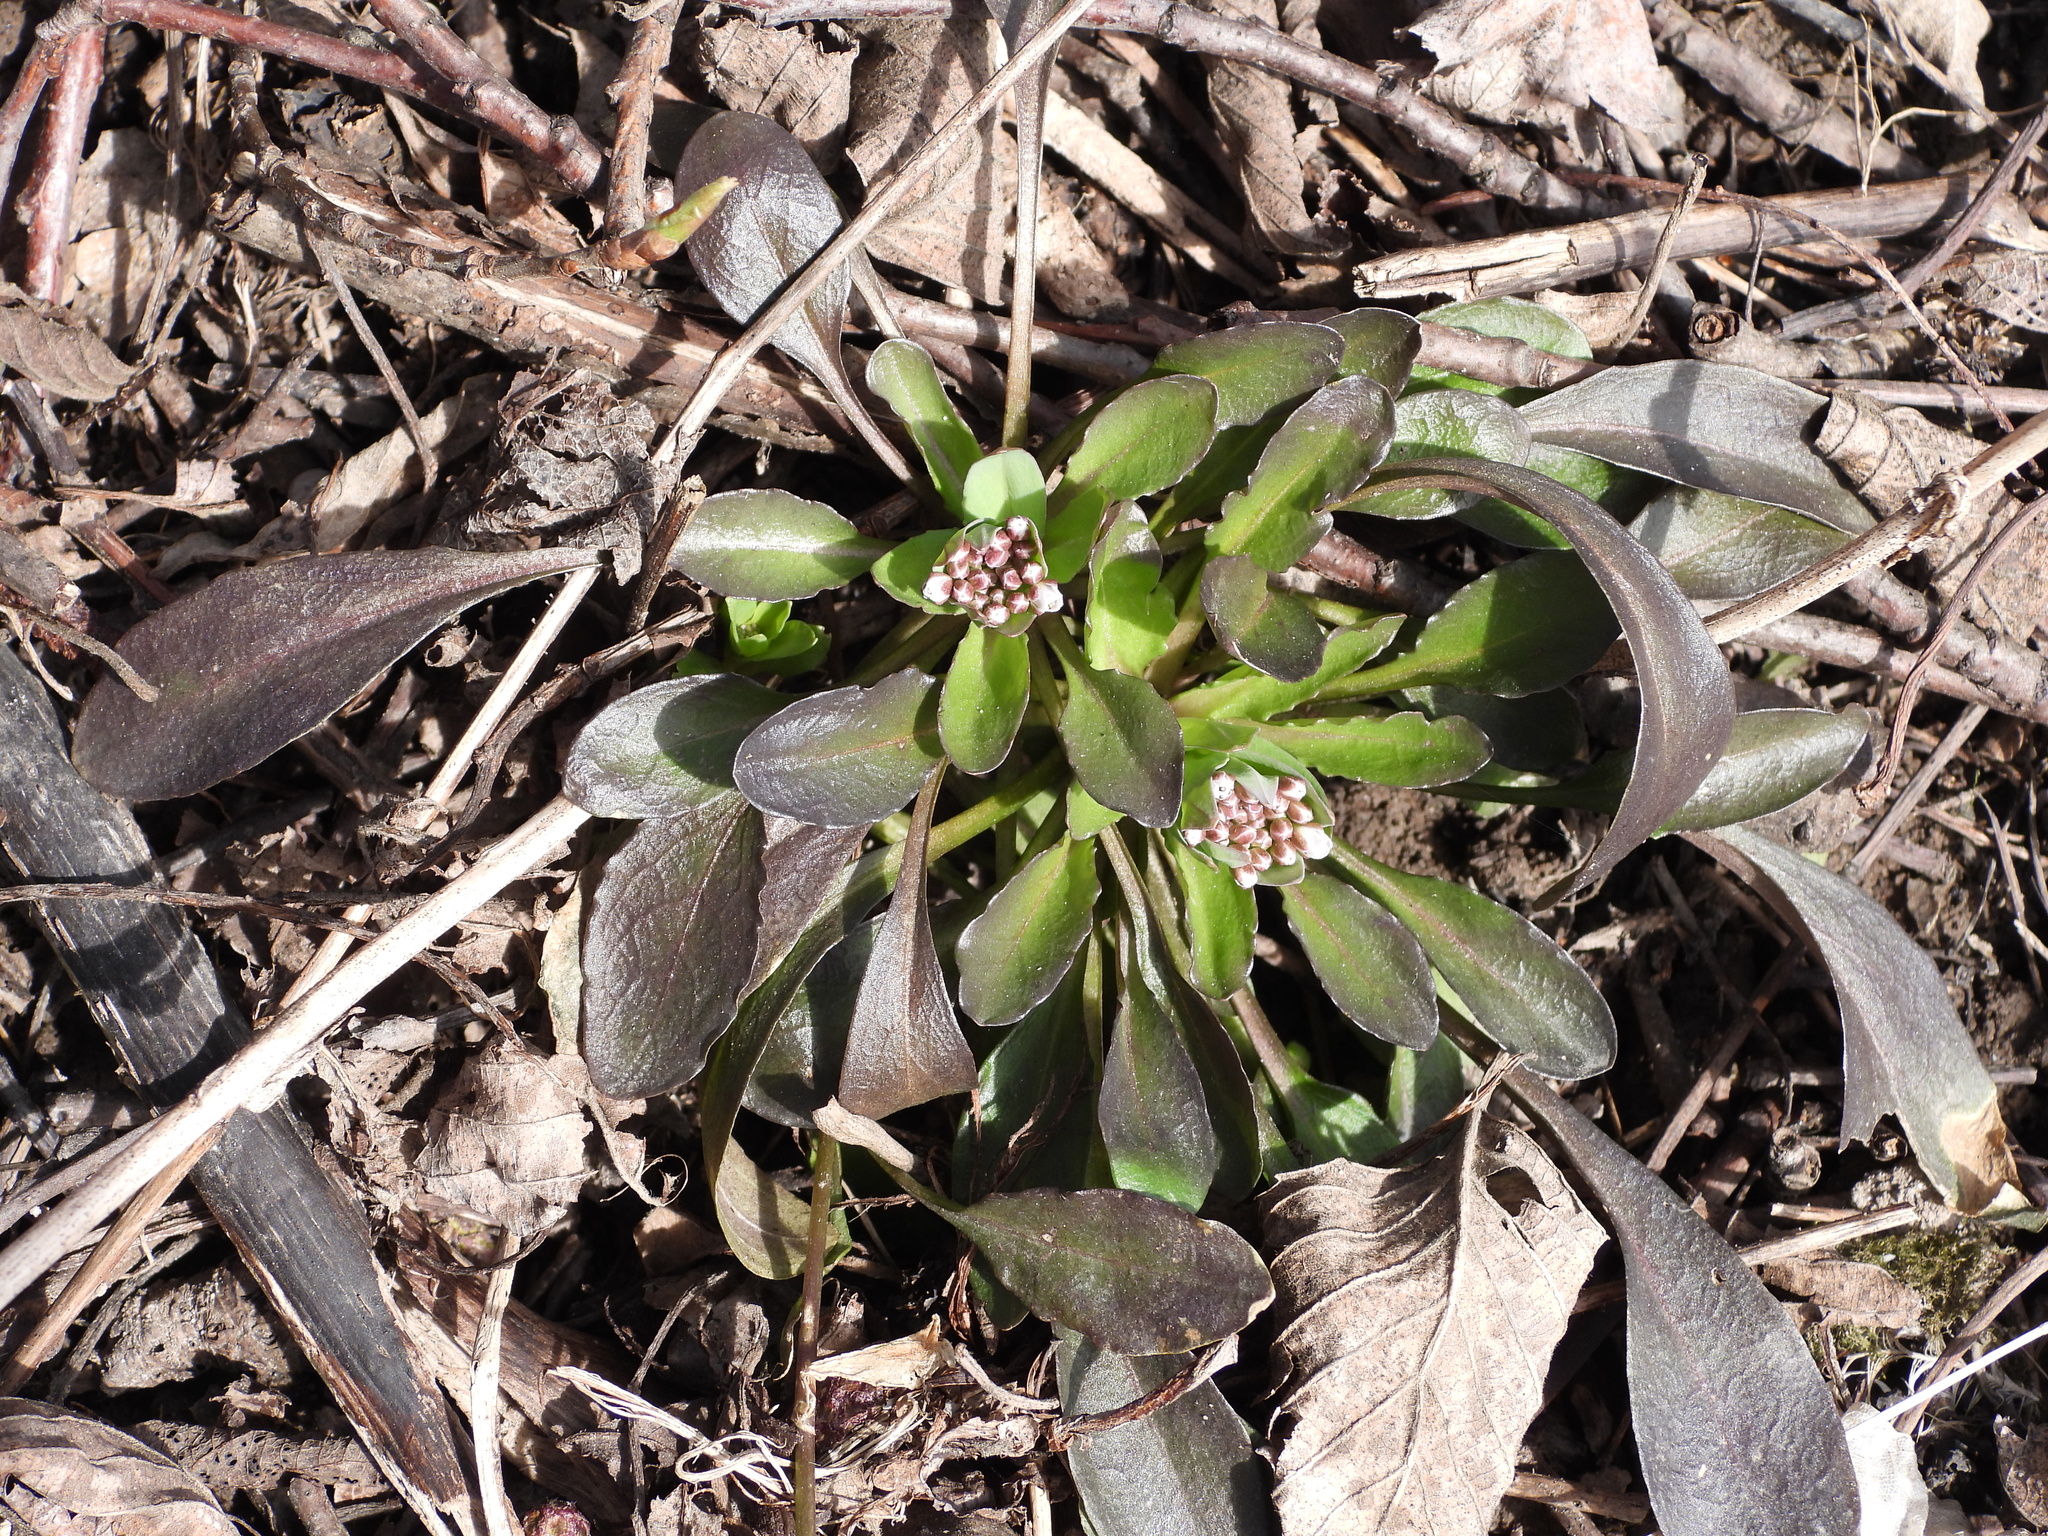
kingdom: Plantae
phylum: Tracheophyta
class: Magnoliopsida
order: Brassicales
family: Brassicaceae
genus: Noccaea
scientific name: Noccaea caerulescens
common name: Alpine pennycress
